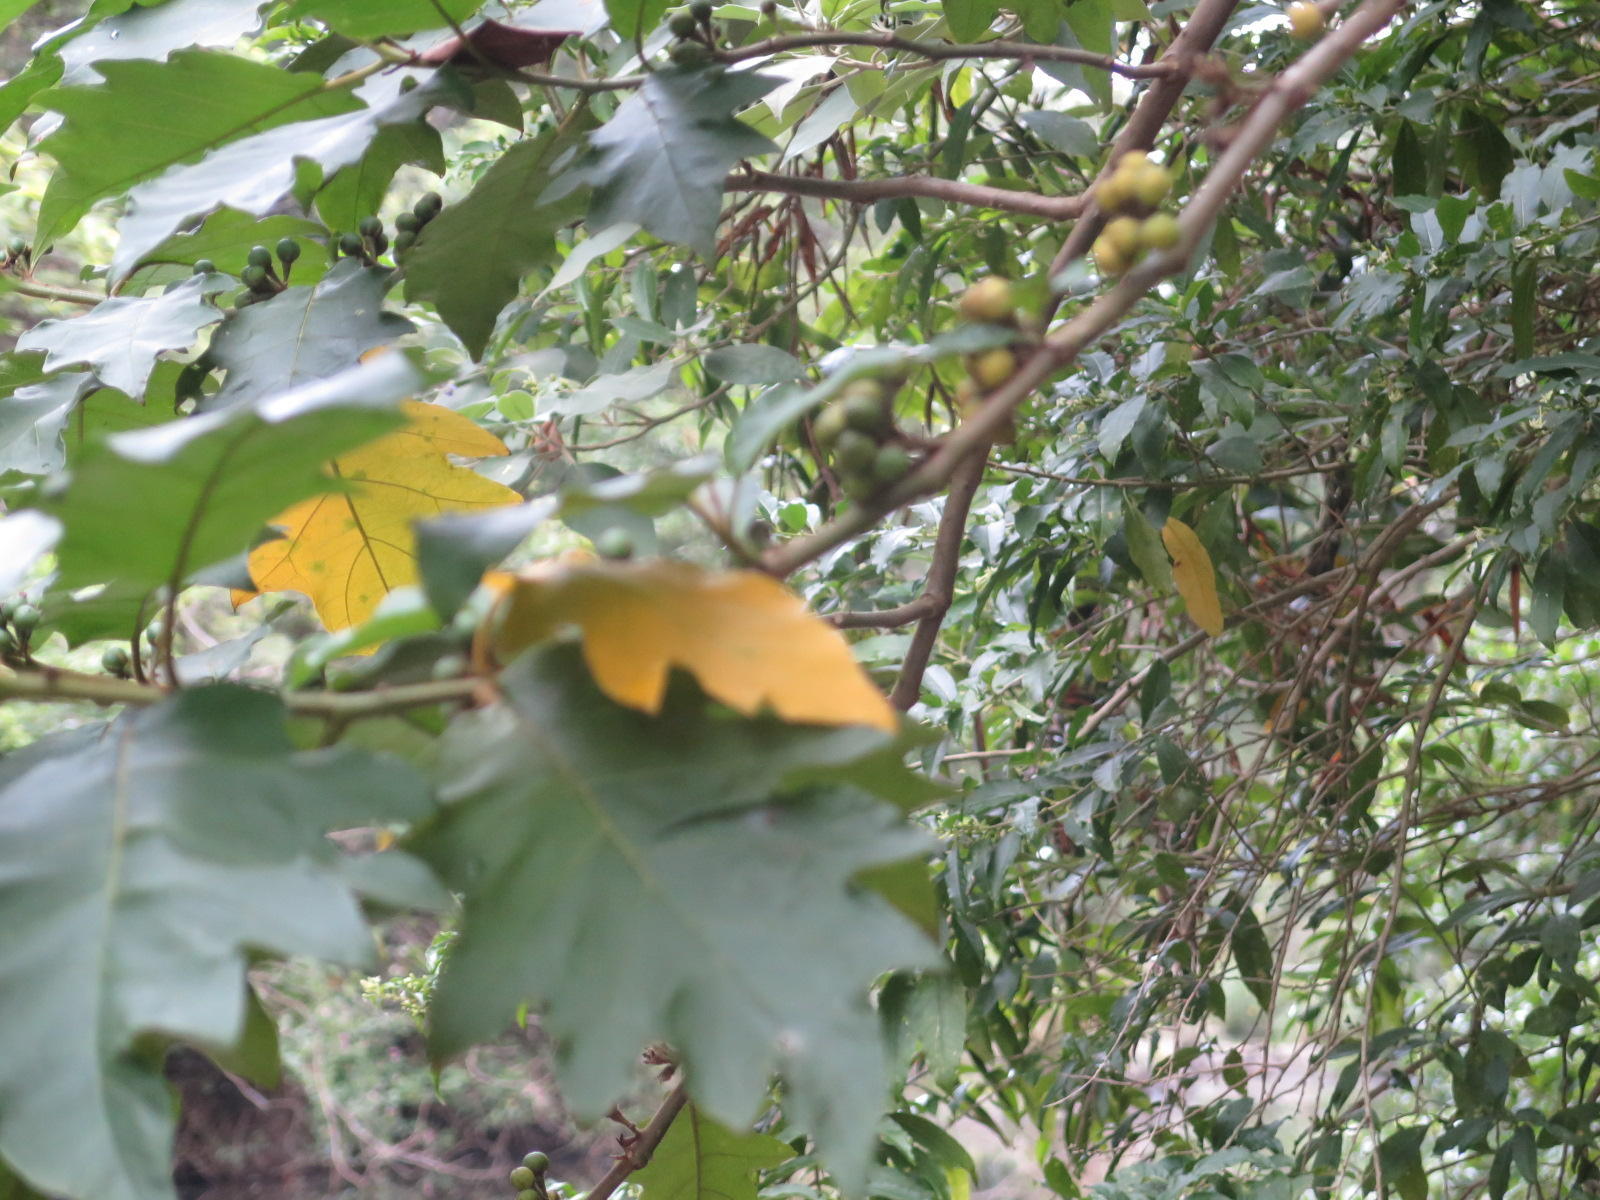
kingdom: Plantae
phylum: Tracheophyta
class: Magnoliopsida
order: Solanales
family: Solanaceae
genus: Solanum
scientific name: Solanum chrysotrichum
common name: Nightshade
